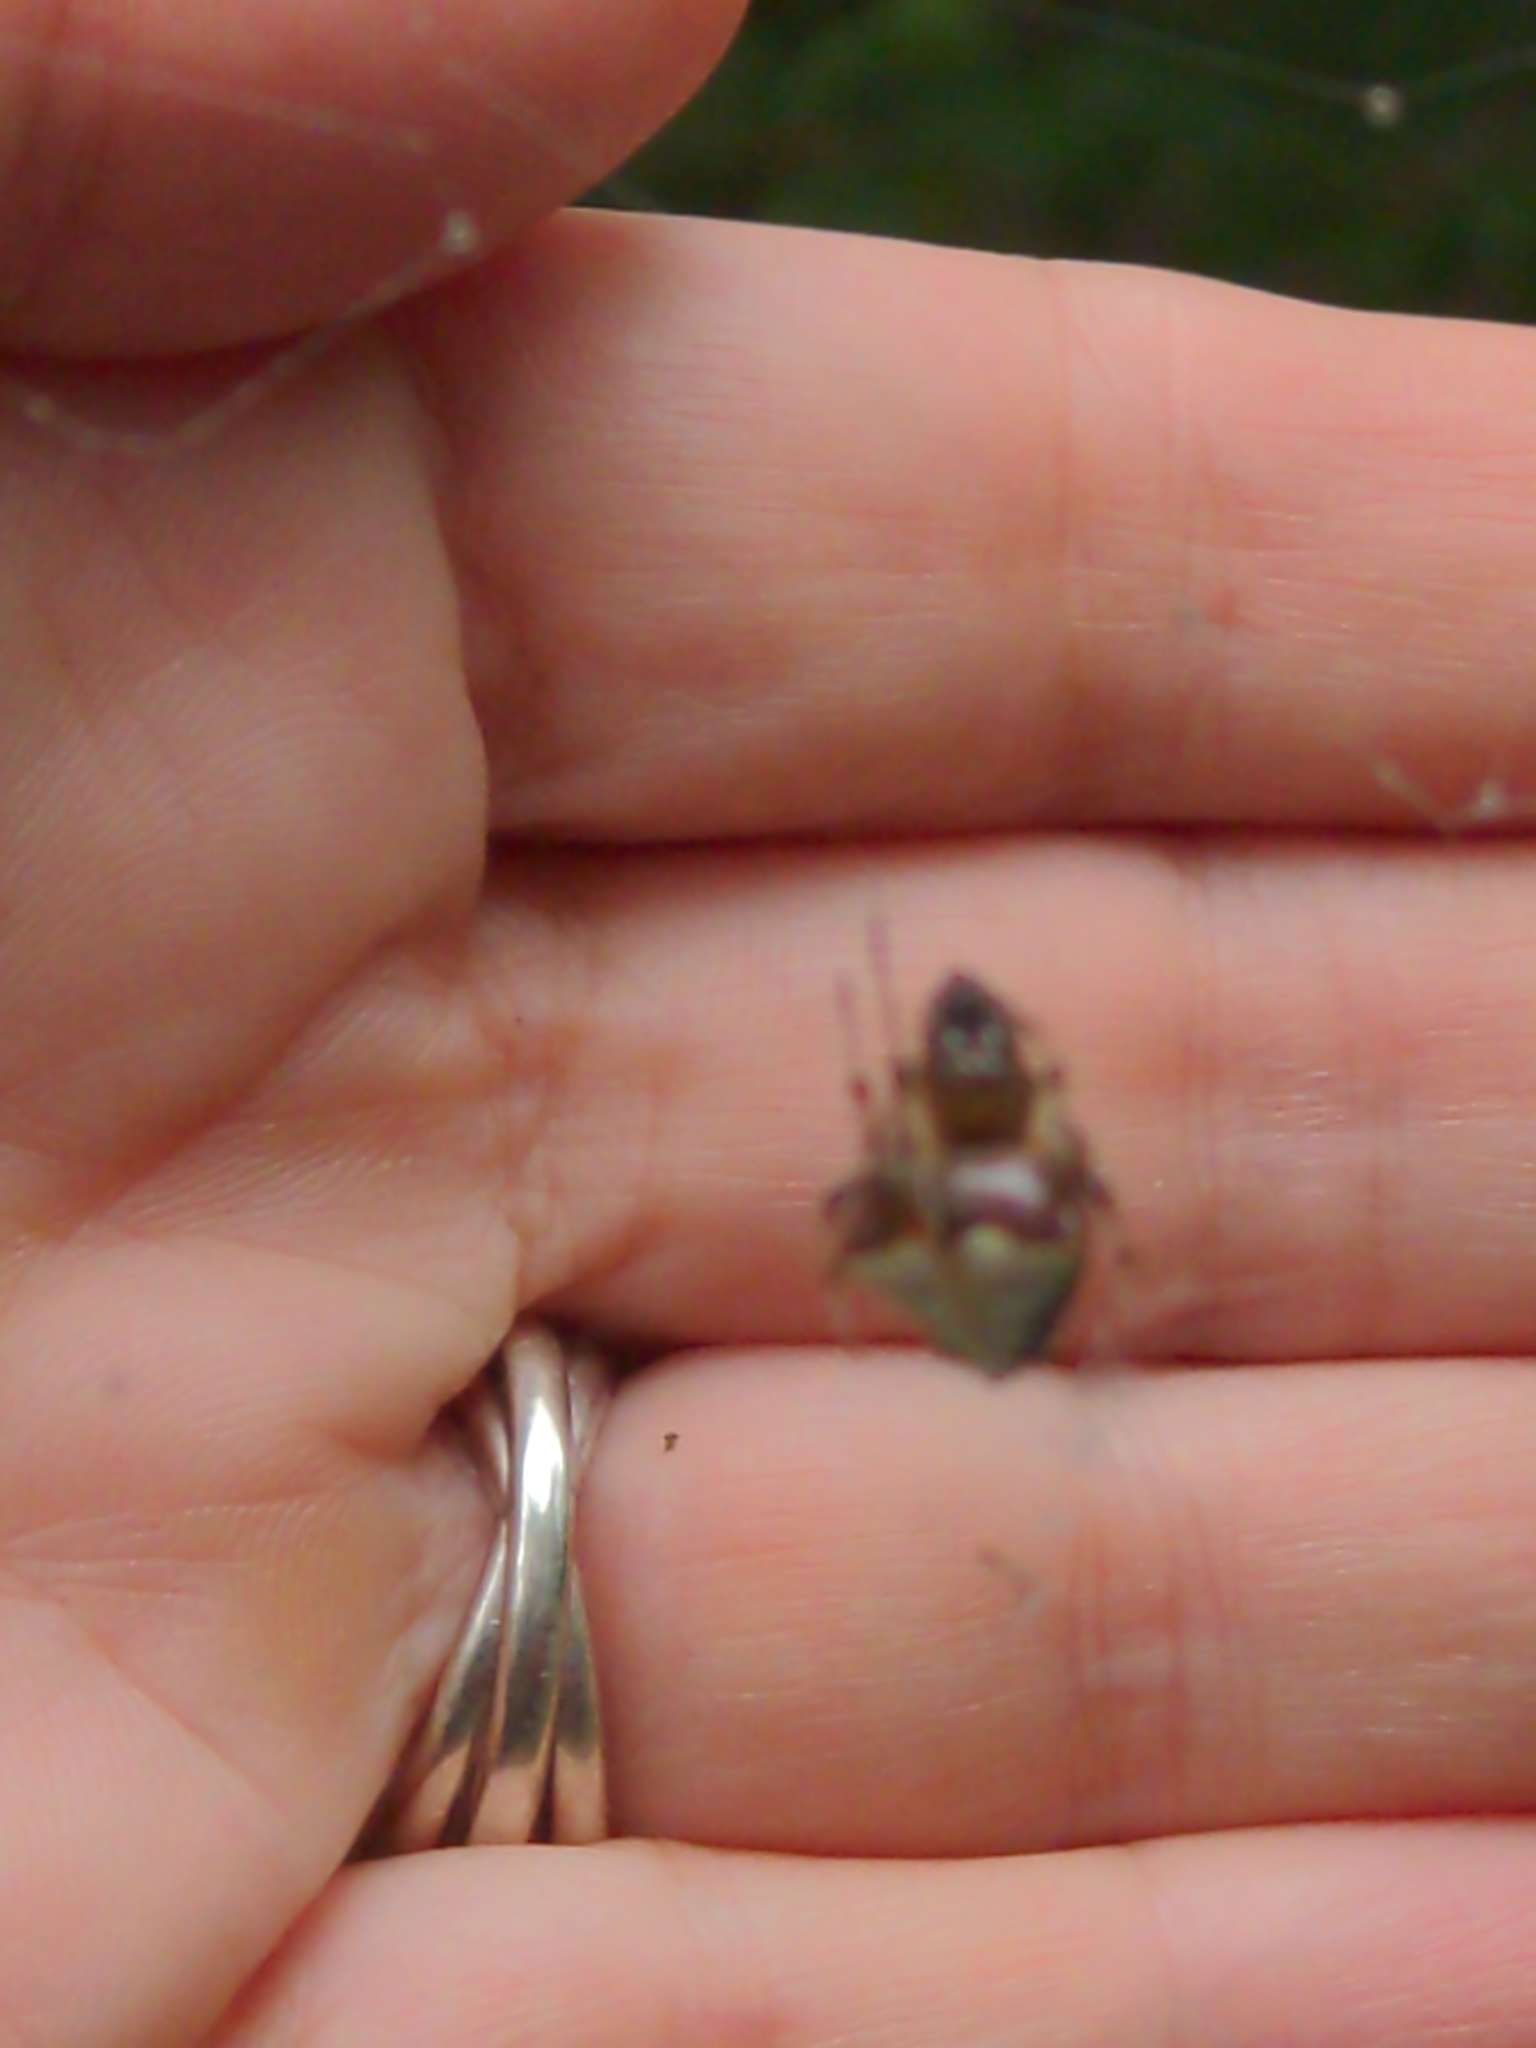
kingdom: Animalia
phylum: Arthropoda
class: Arachnida
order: Araneae
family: Araneidae
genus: Verrucosa
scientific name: Verrucosa arenata
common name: Orb weavers
